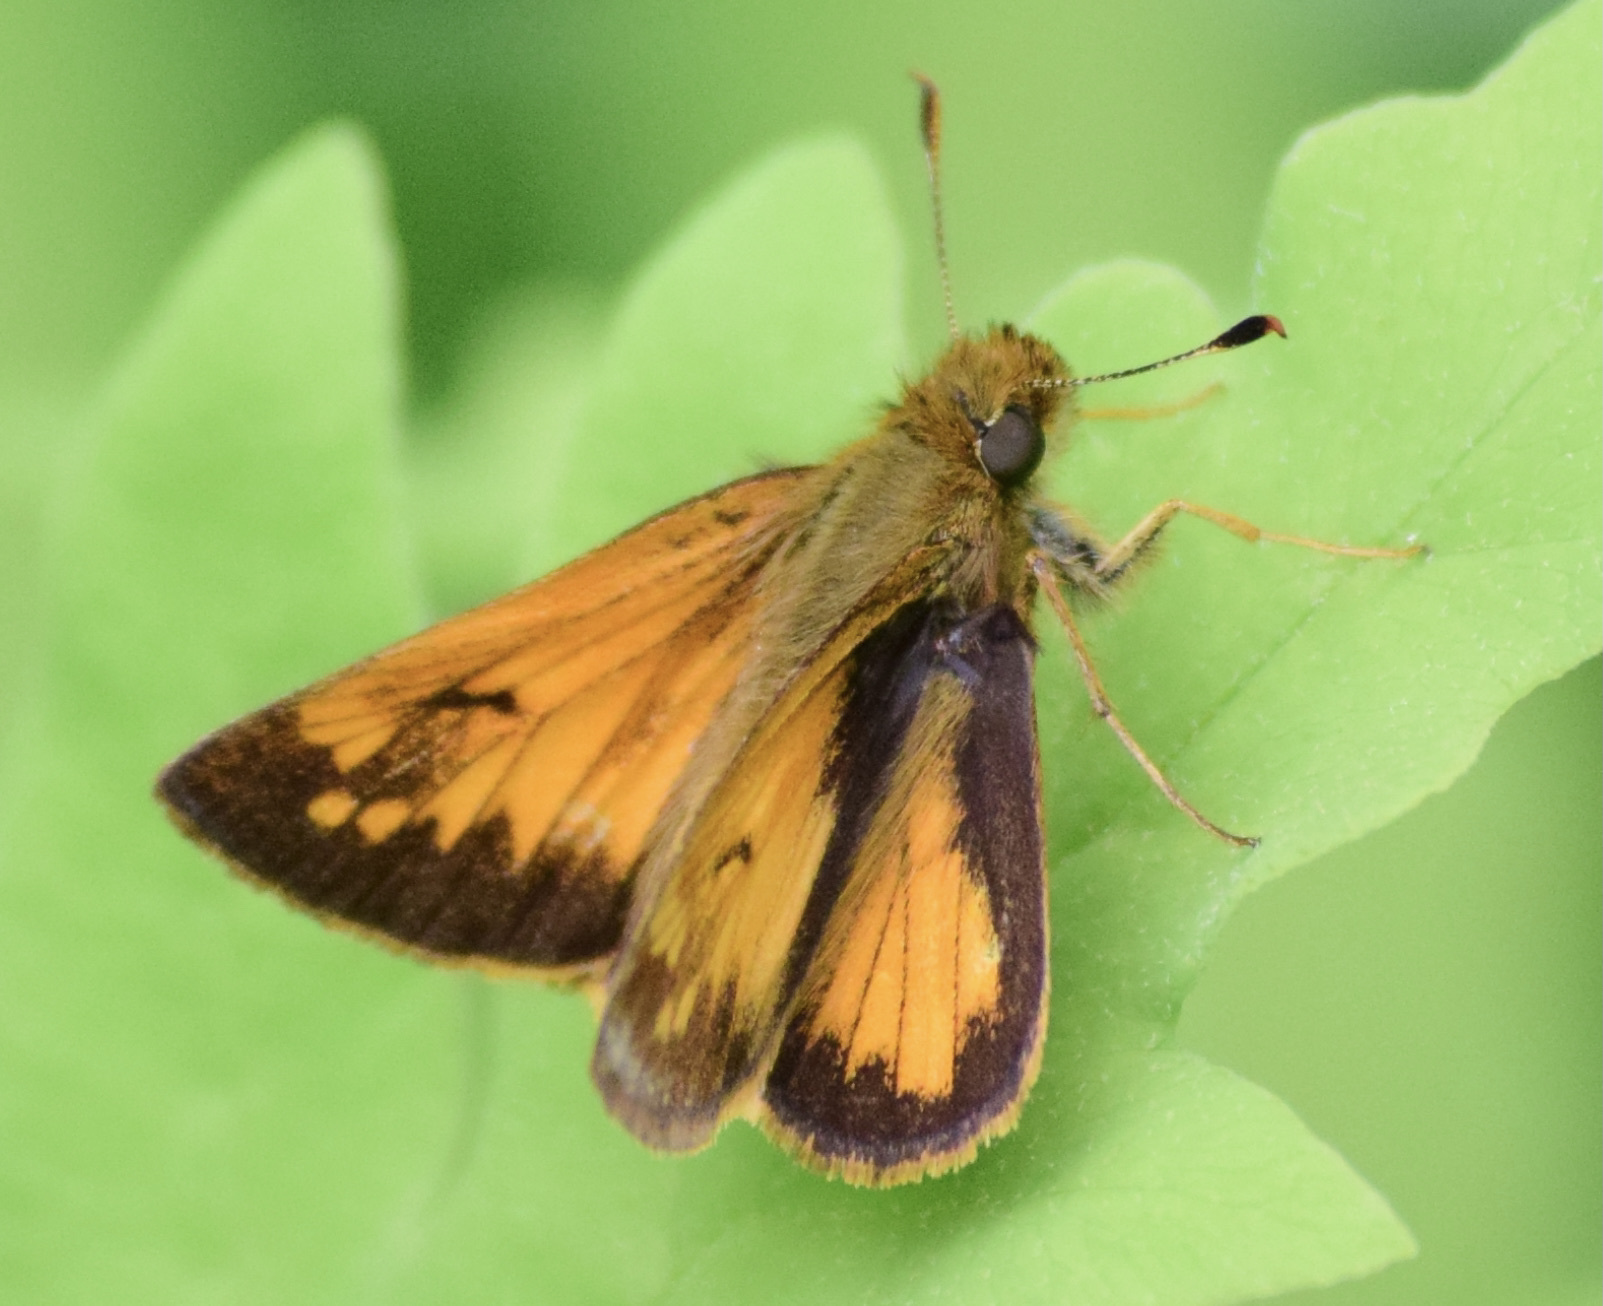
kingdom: Animalia
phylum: Arthropoda
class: Insecta
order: Lepidoptera
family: Hesperiidae
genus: Lon
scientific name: Lon hobomok
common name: Hobomok skipper
